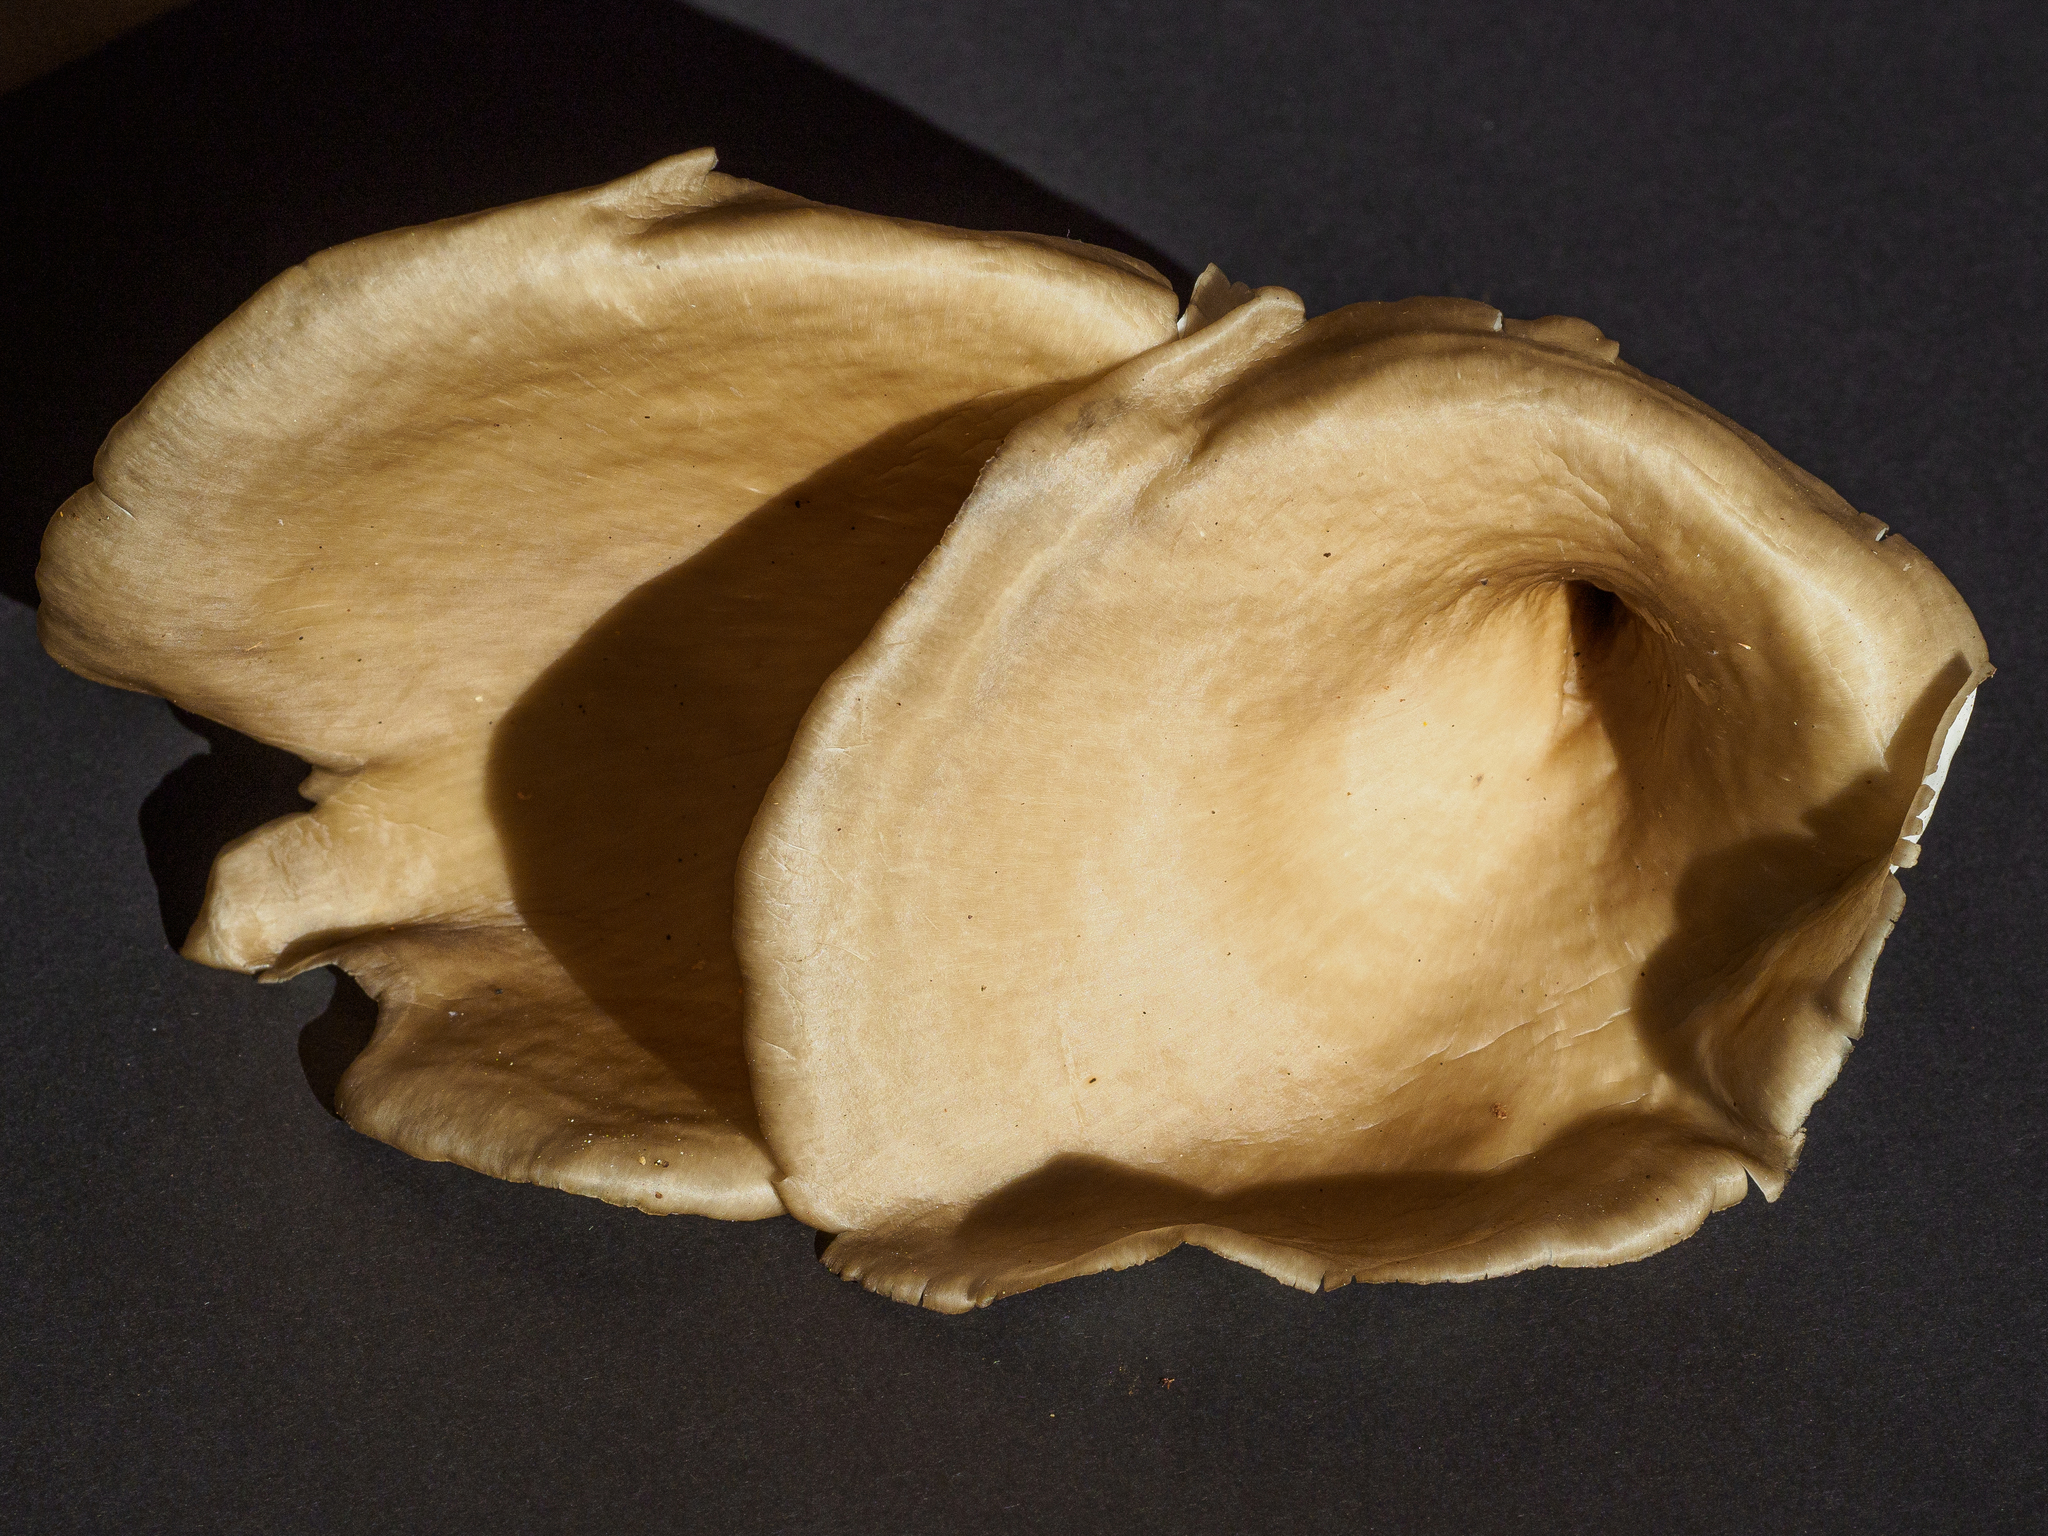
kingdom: Fungi
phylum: Basidiomycota
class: Agaricomycetes
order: Polyporales
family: Polyporaceae
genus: Picipes
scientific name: Picipes badius
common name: Bay polypore
